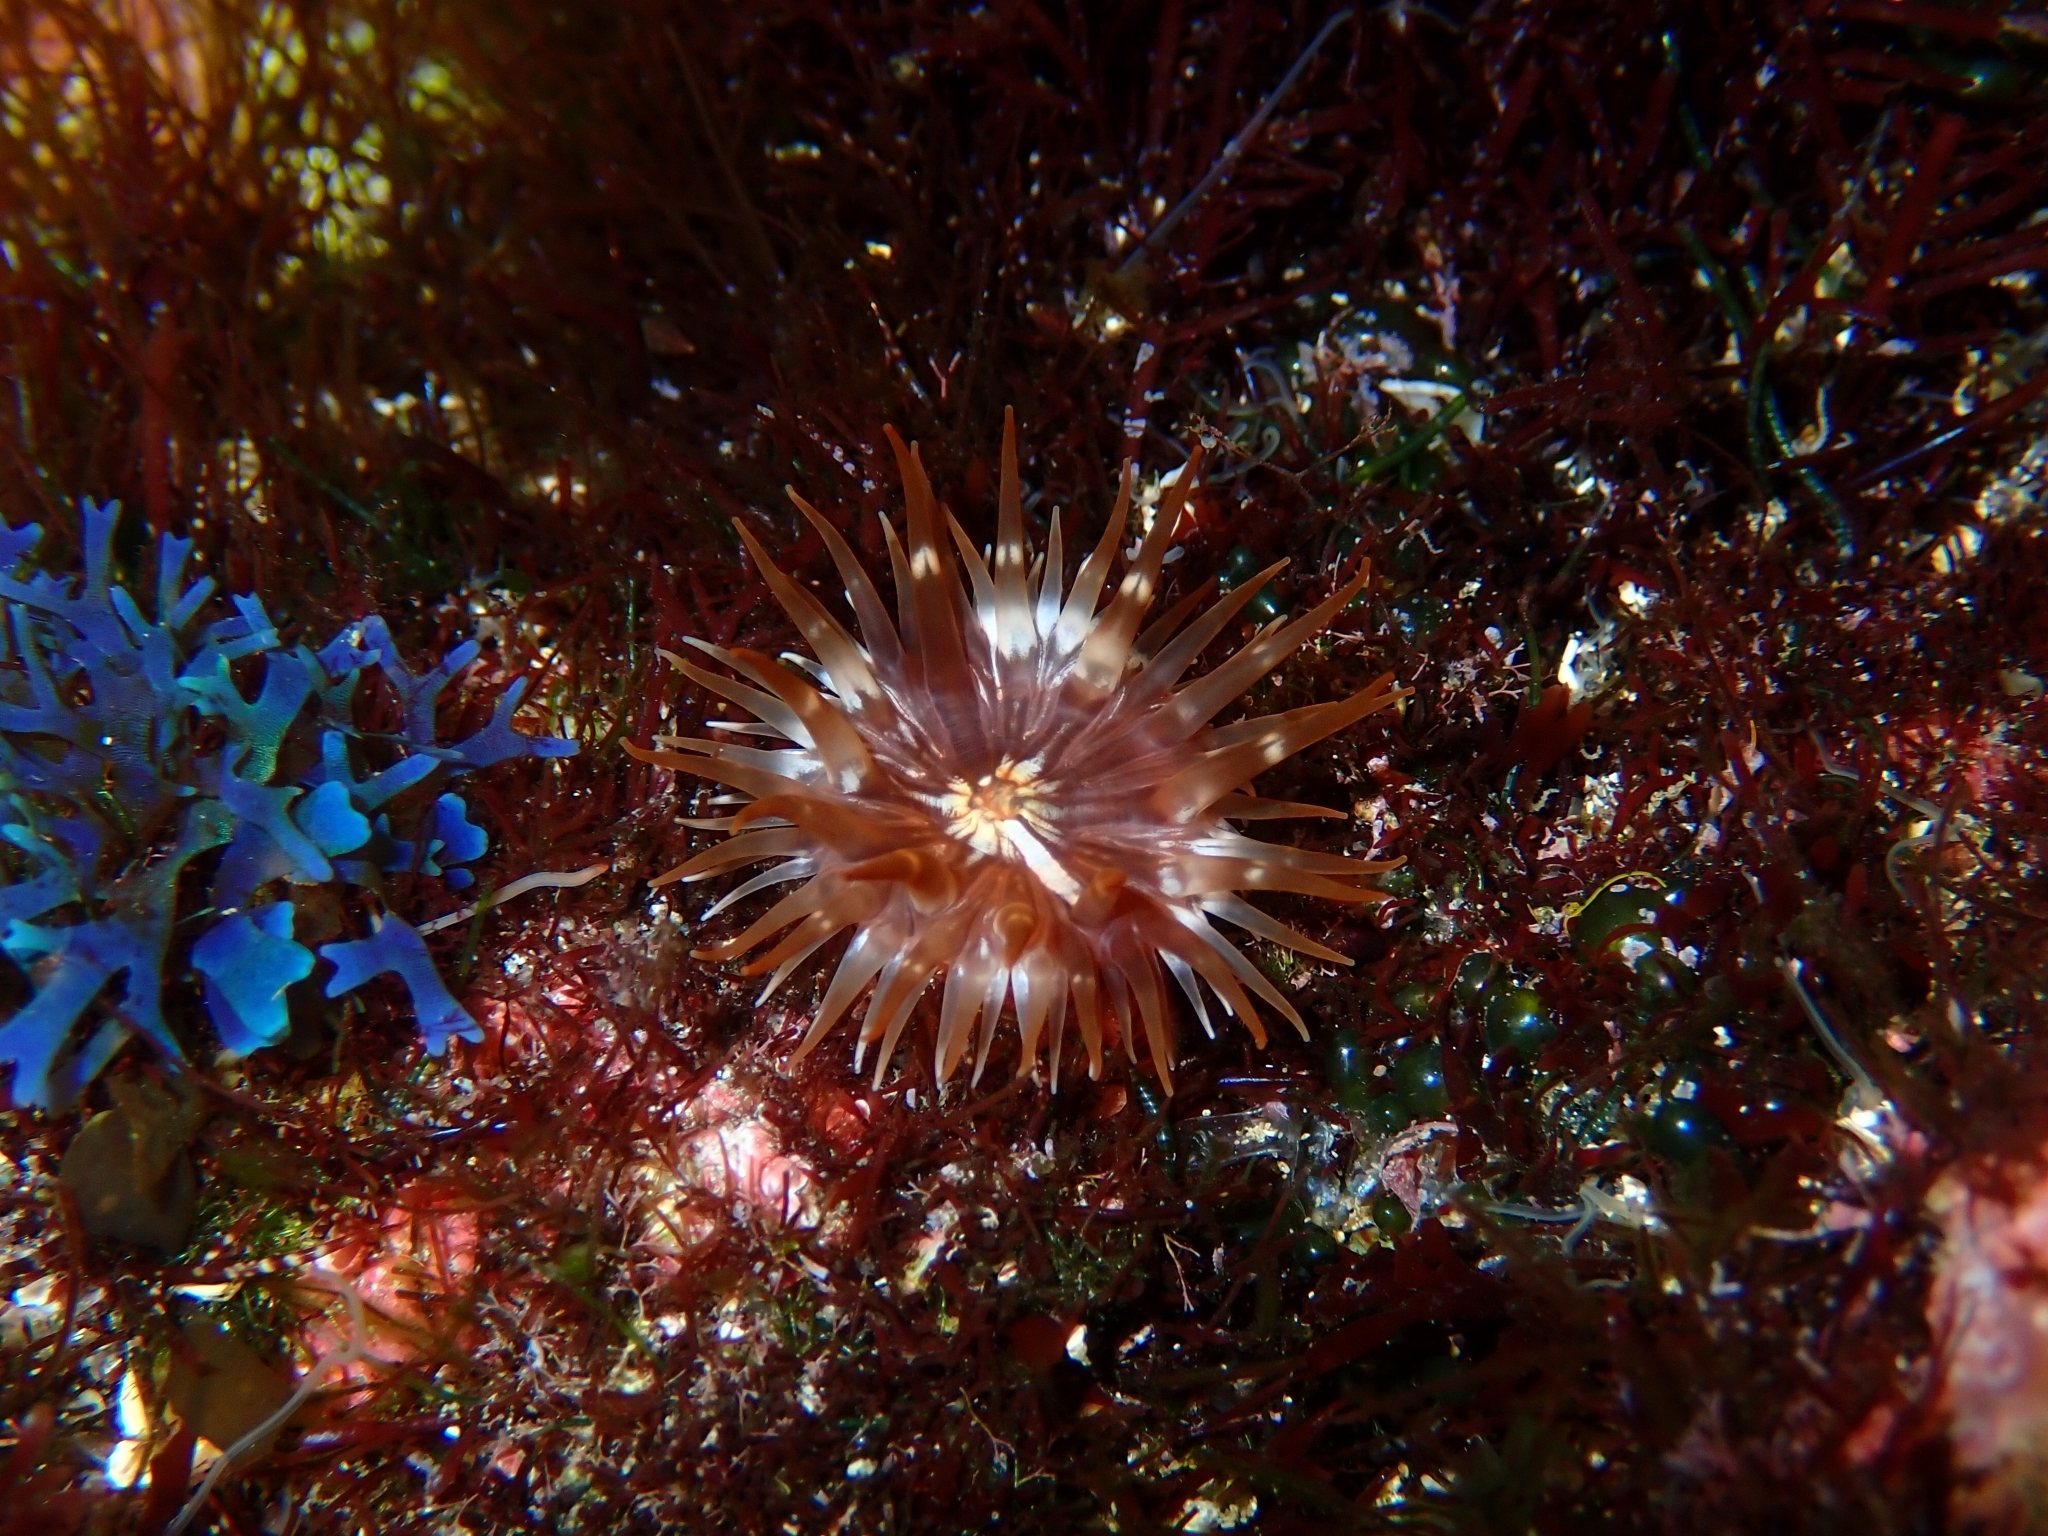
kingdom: Animalia
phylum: Cnidaria
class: Anthozoa
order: Actiniaria
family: Andvakiidae
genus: Telmatactis
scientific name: Telmatactis forskalii
